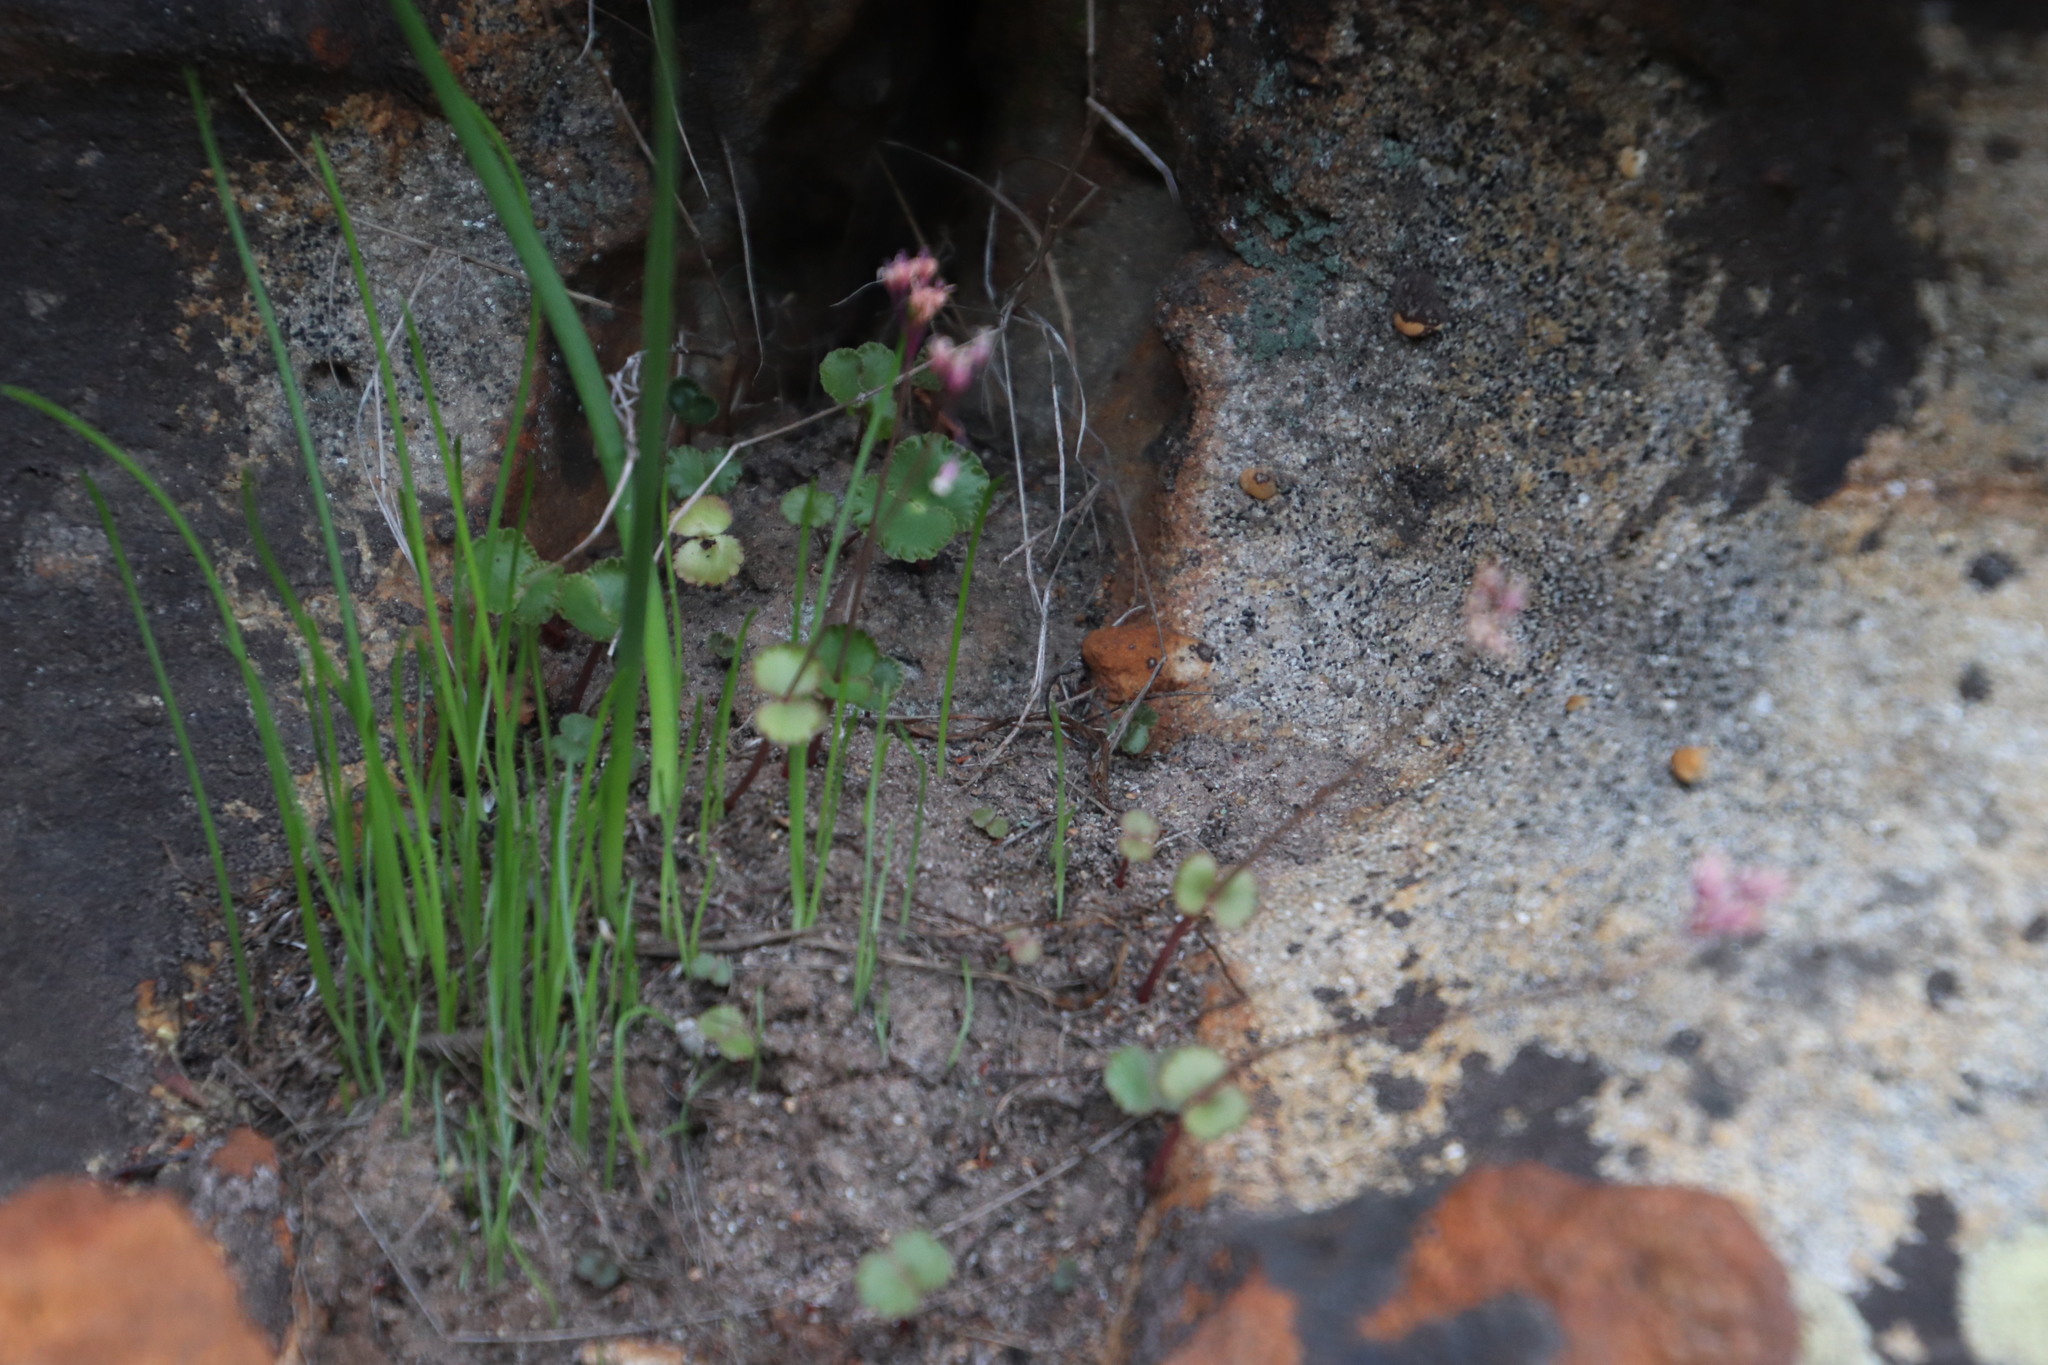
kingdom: Plantae
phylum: Tracheophyta
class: Magnoliopsida
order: Saxifragales
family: Crassulaceae
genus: Crassula
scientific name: Crassula saxifraga
